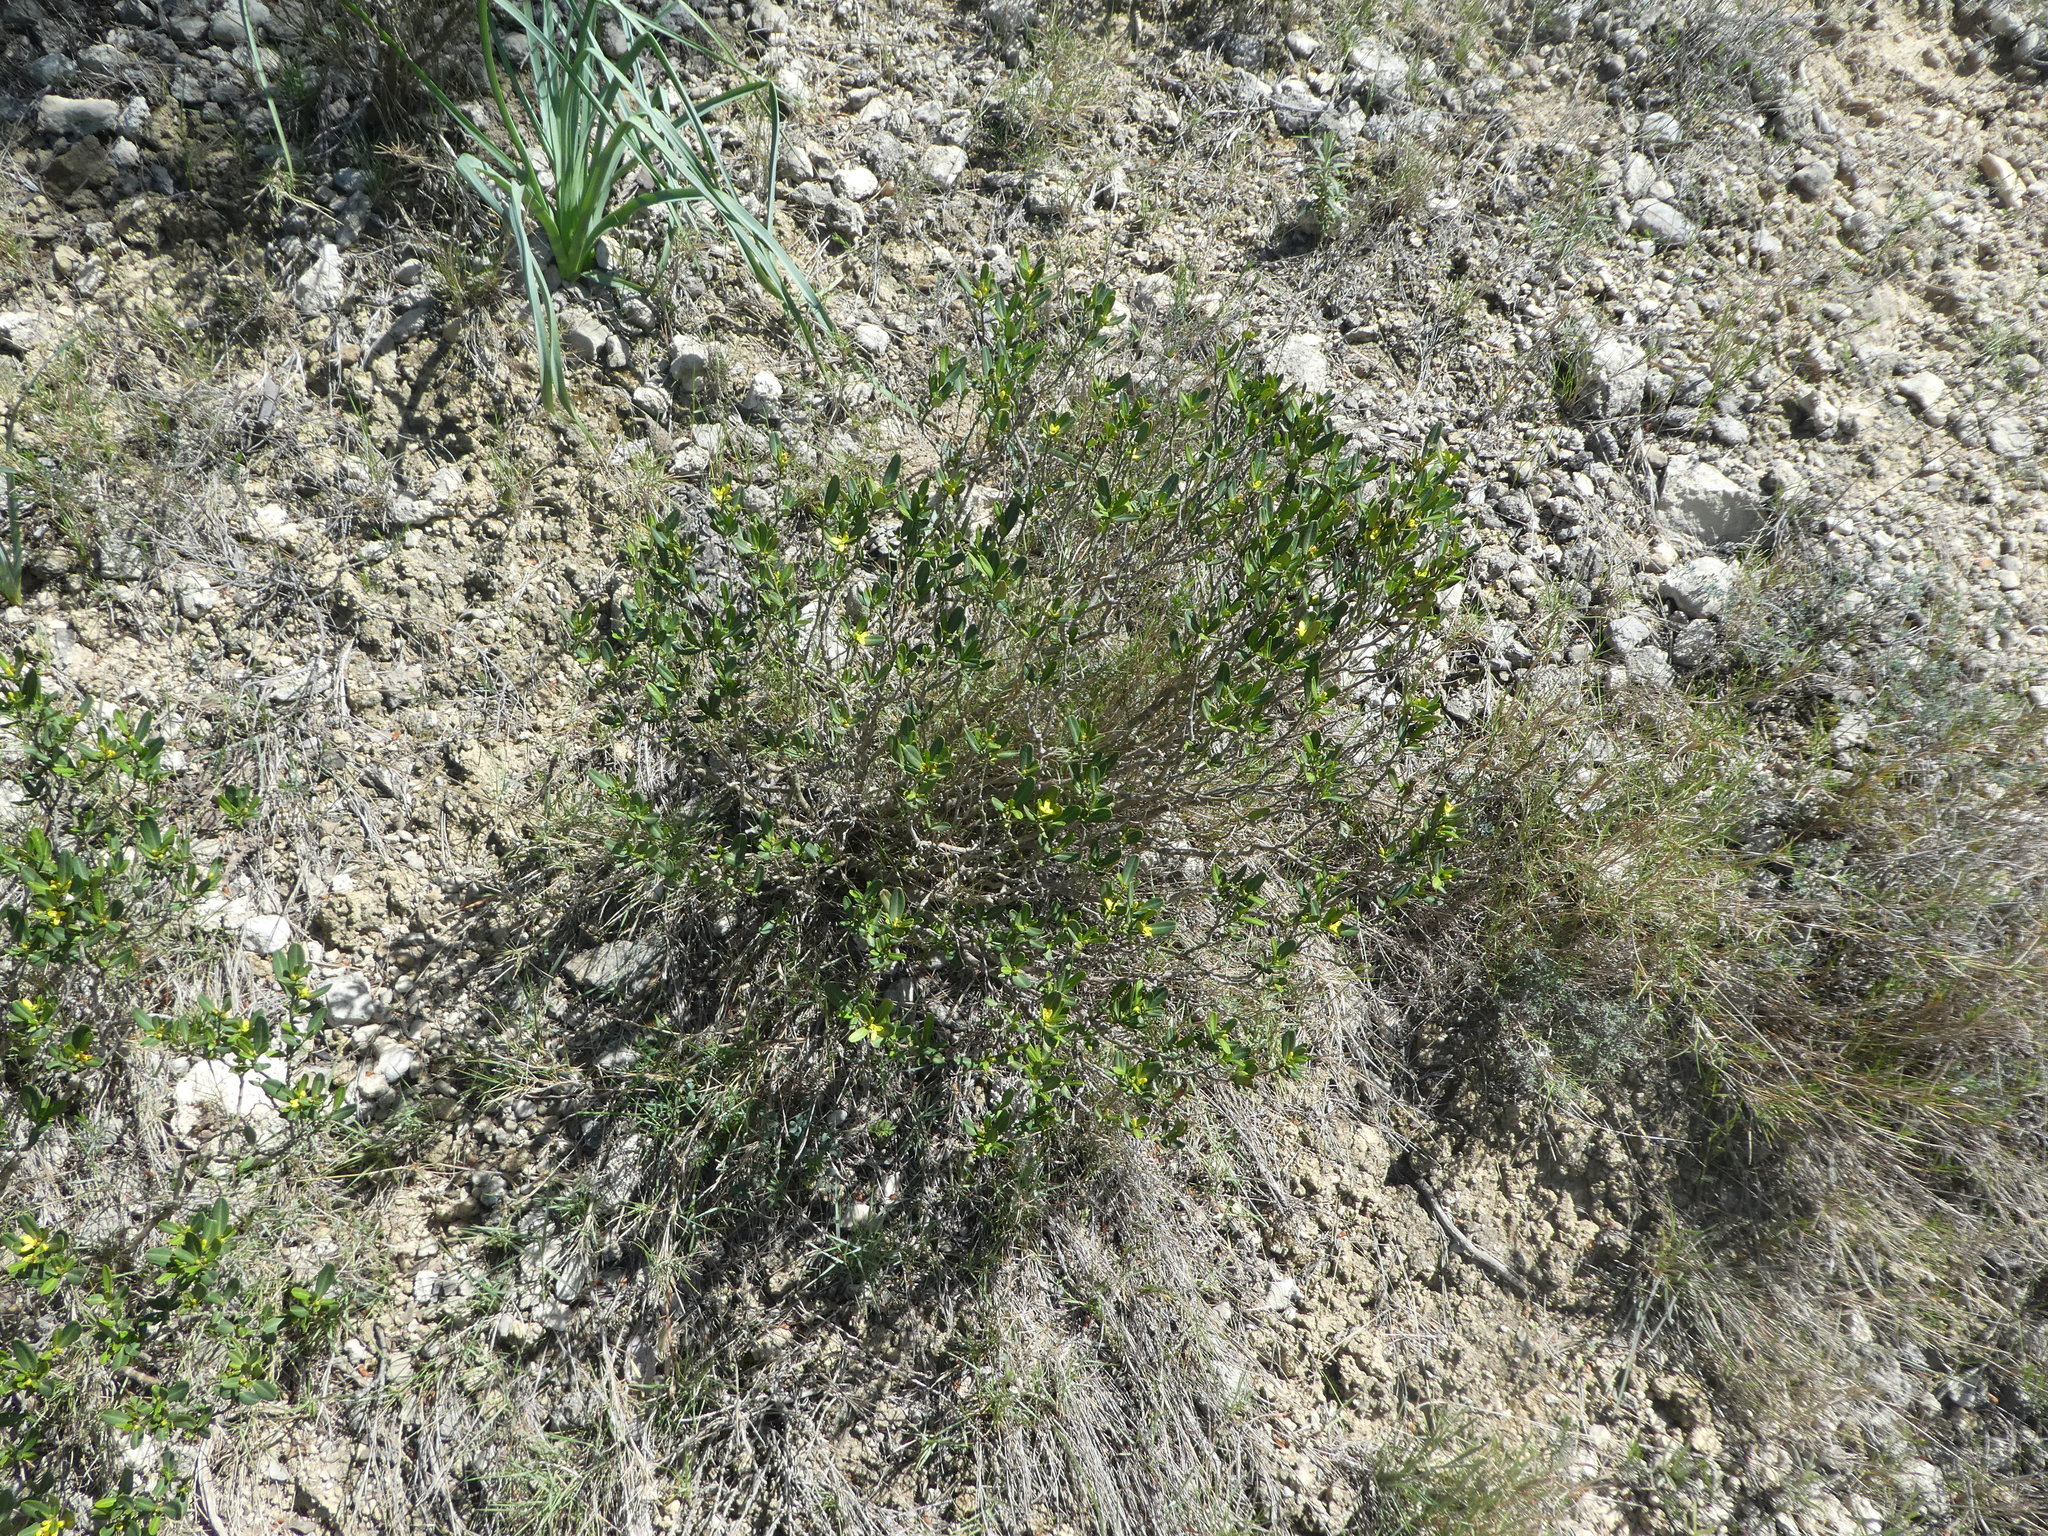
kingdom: Plantae
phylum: Tracheophyta
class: Magnoliopsida
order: Sapindales
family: Rutaceae
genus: Cneorum
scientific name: Cneorum tricoccon
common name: Spurge olive
